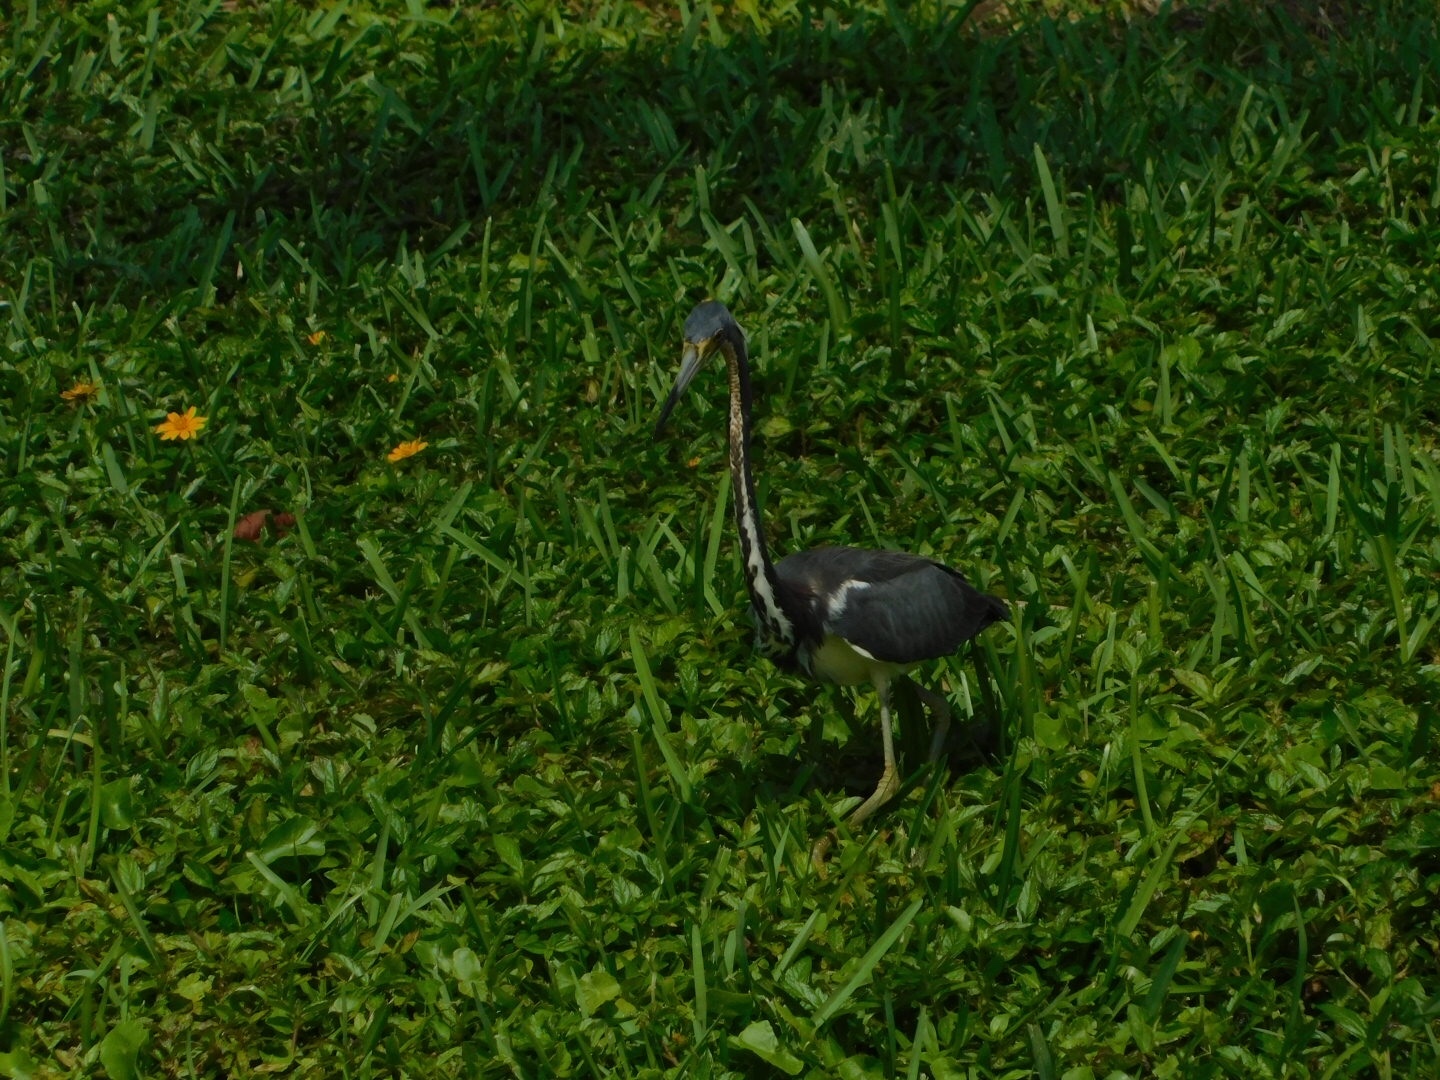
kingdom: Animalia
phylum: Chordata
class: Aves
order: Pelecaniformes
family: Ardeidae
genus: Egretta
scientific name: Egretta tricolor
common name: Tricolored heron
